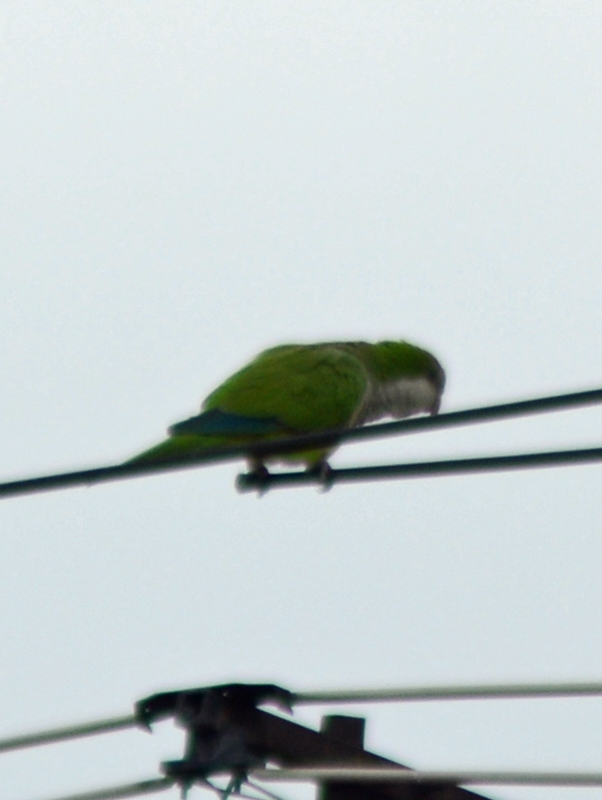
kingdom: Animalia
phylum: Chordata
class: Aves
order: Psittaciformes
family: Psittacidae
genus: Myiopsitta
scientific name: Myiopsitta monachus
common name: Monk parakeet
